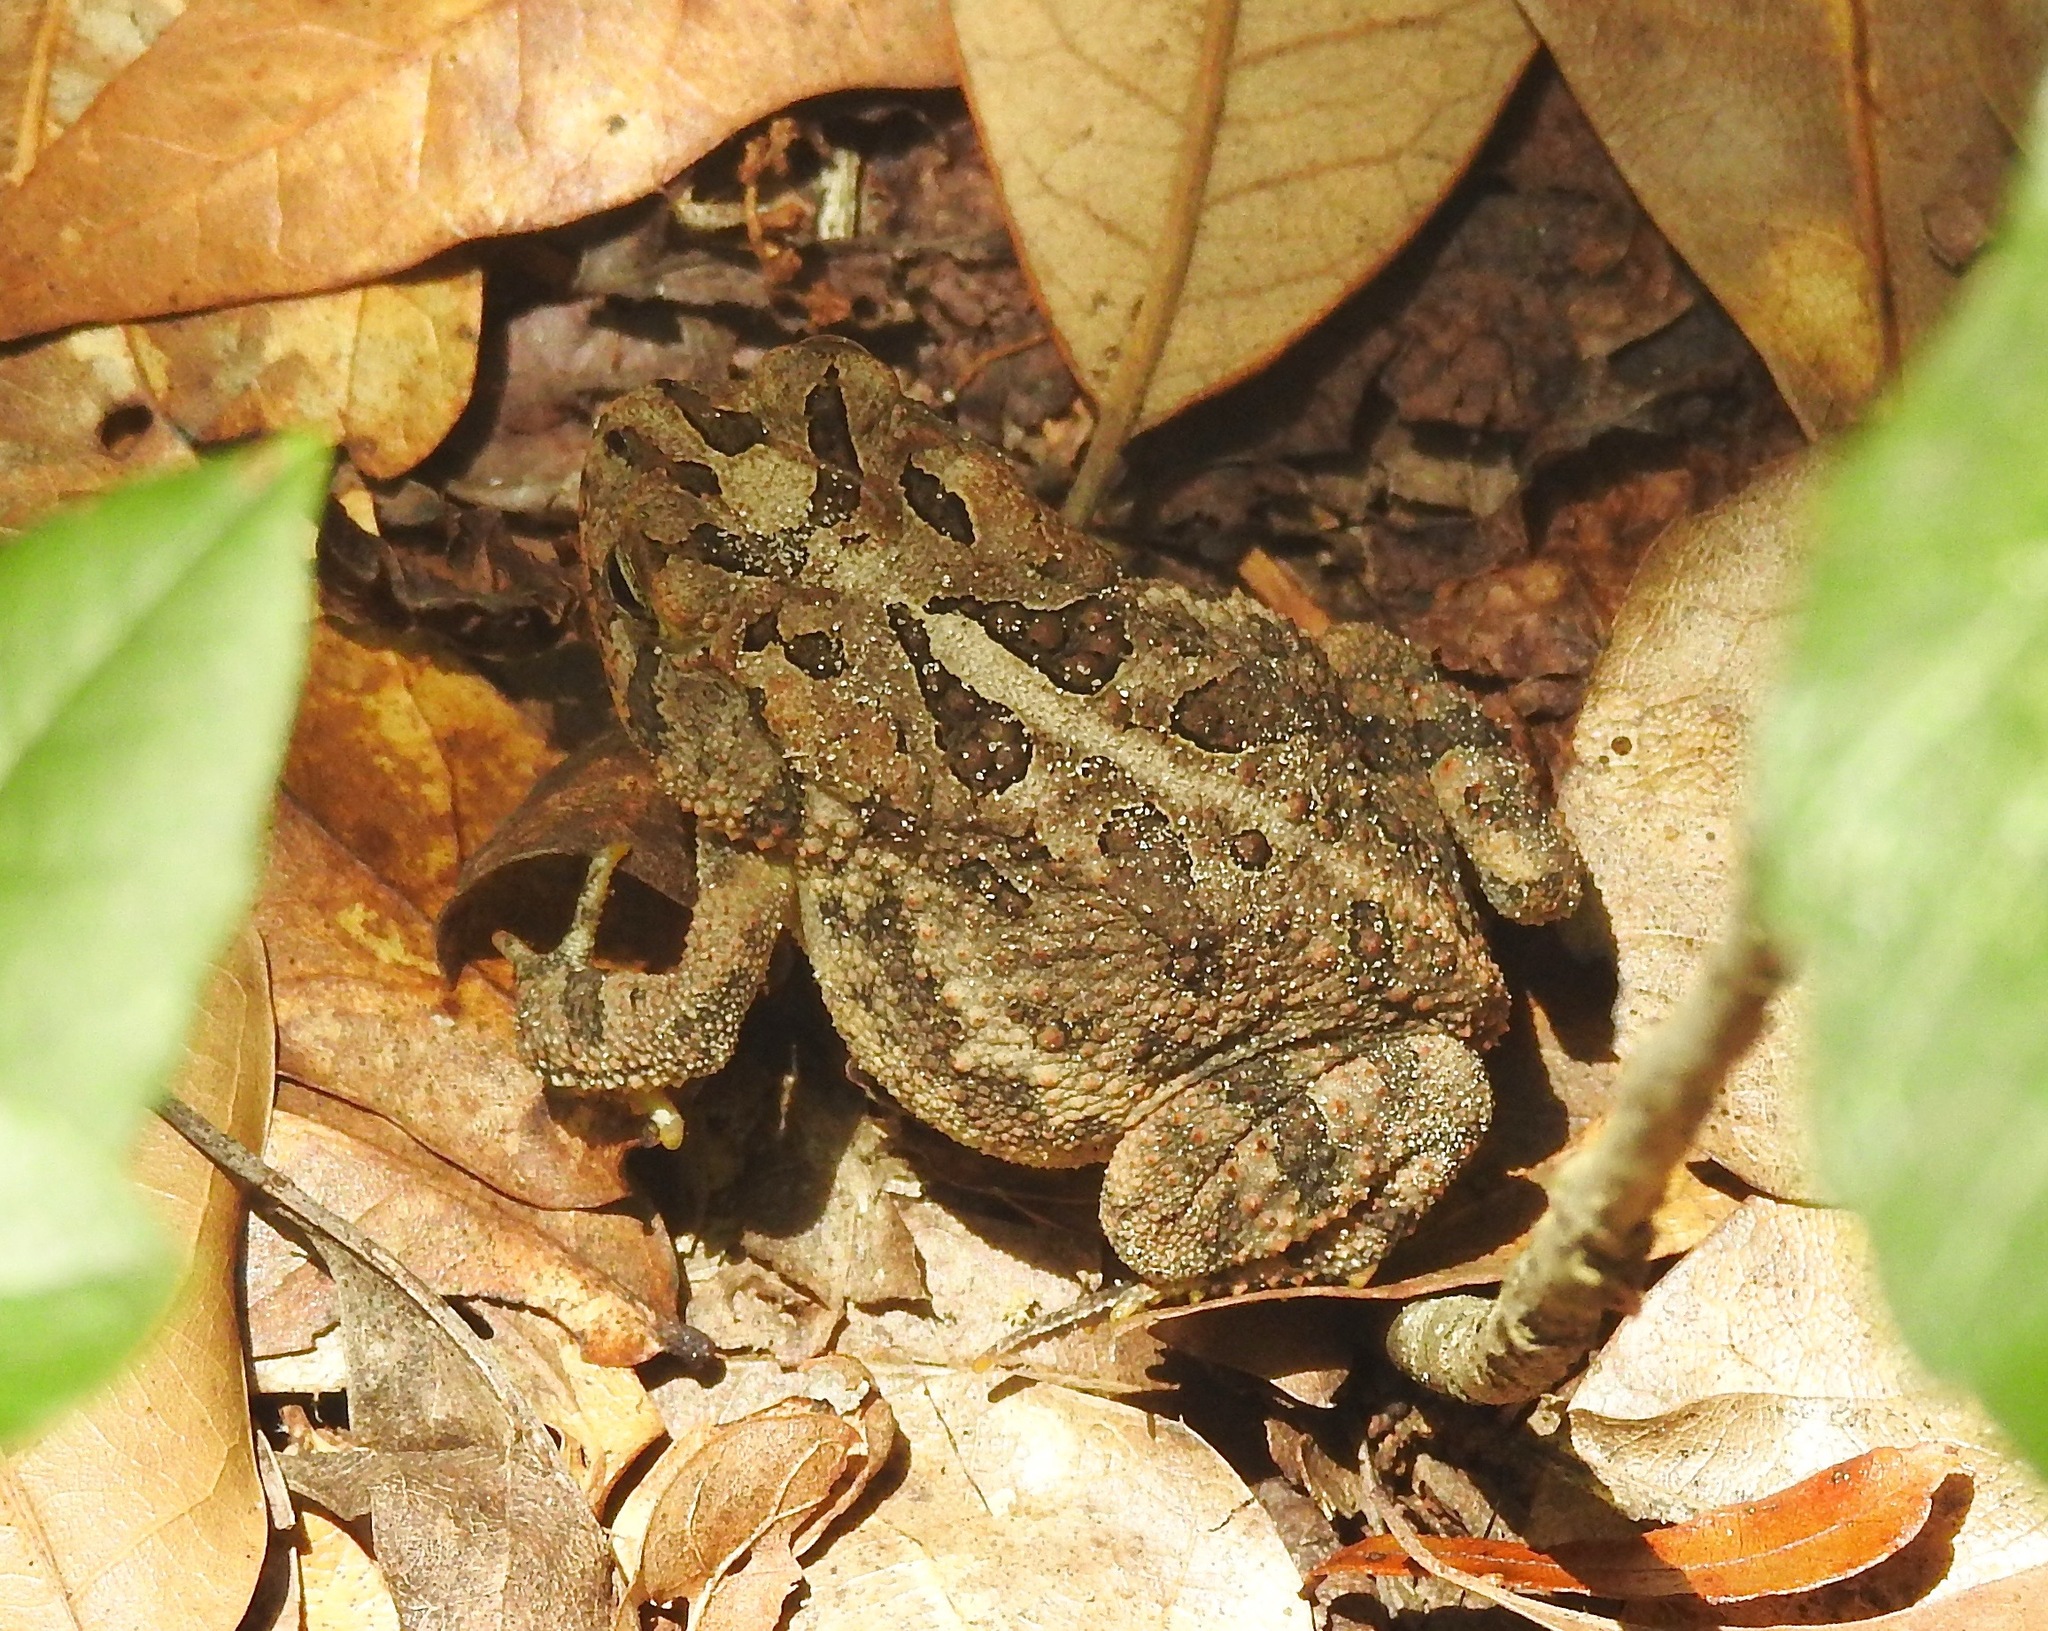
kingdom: Animalia
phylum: Chordata
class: Amphibia
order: Anura
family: Bufonidae
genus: Anaxyrus
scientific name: Anaxyrus terrestris
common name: Southern toad
